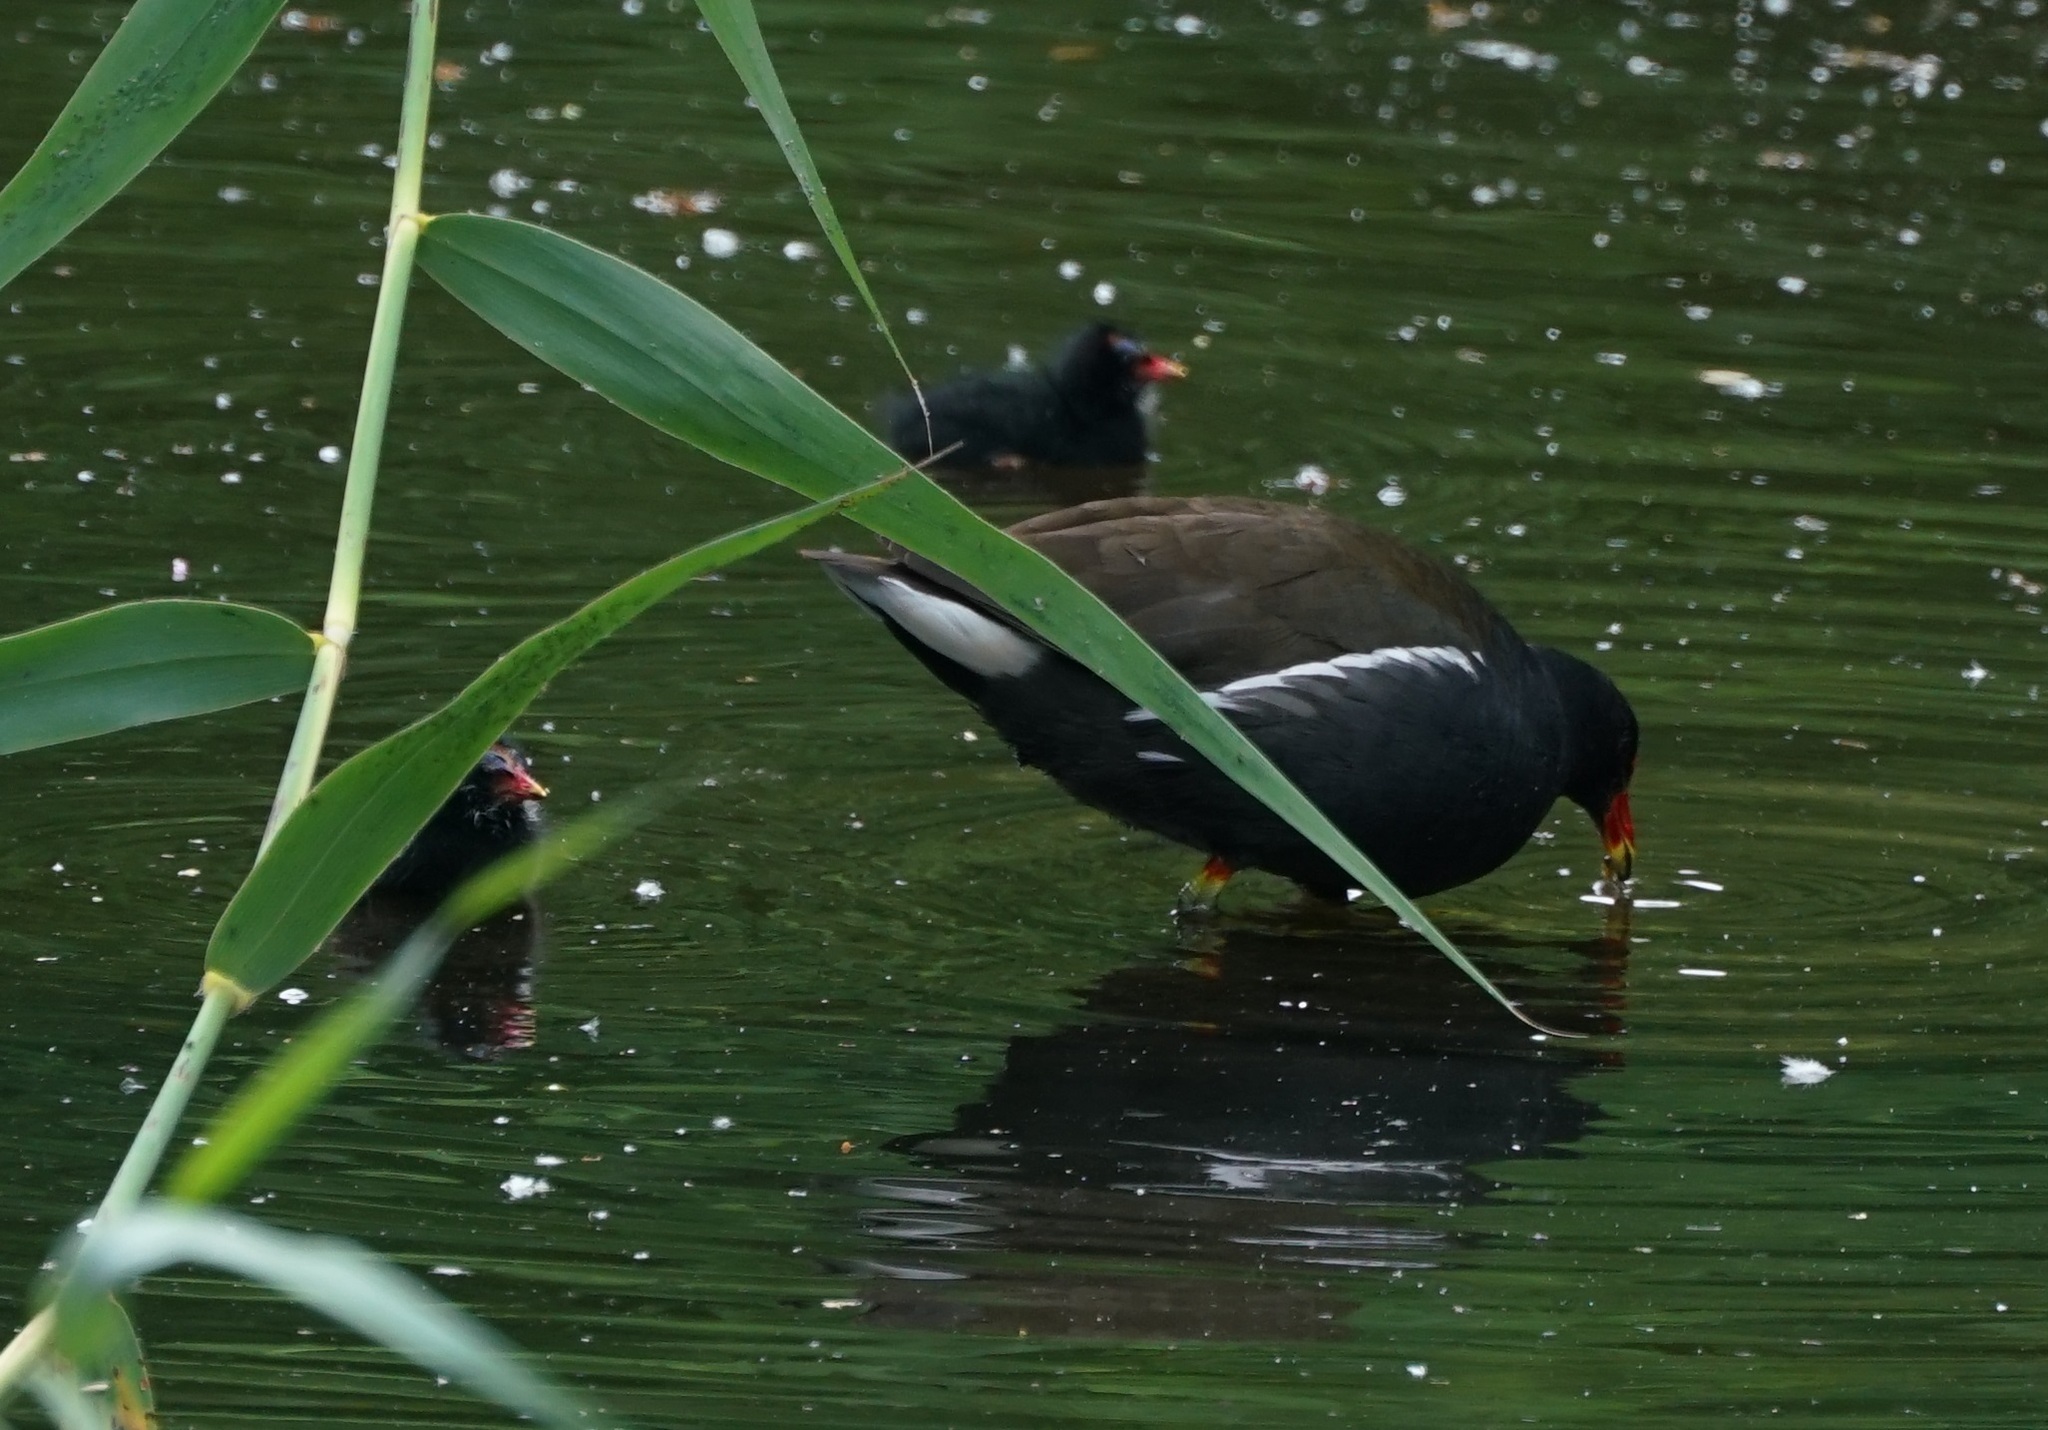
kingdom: Animalia
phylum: Chordata
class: Aves
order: Gruiformes
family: Rallidae
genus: Gallinula
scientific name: Gallinula chloropus
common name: Common moorhen
